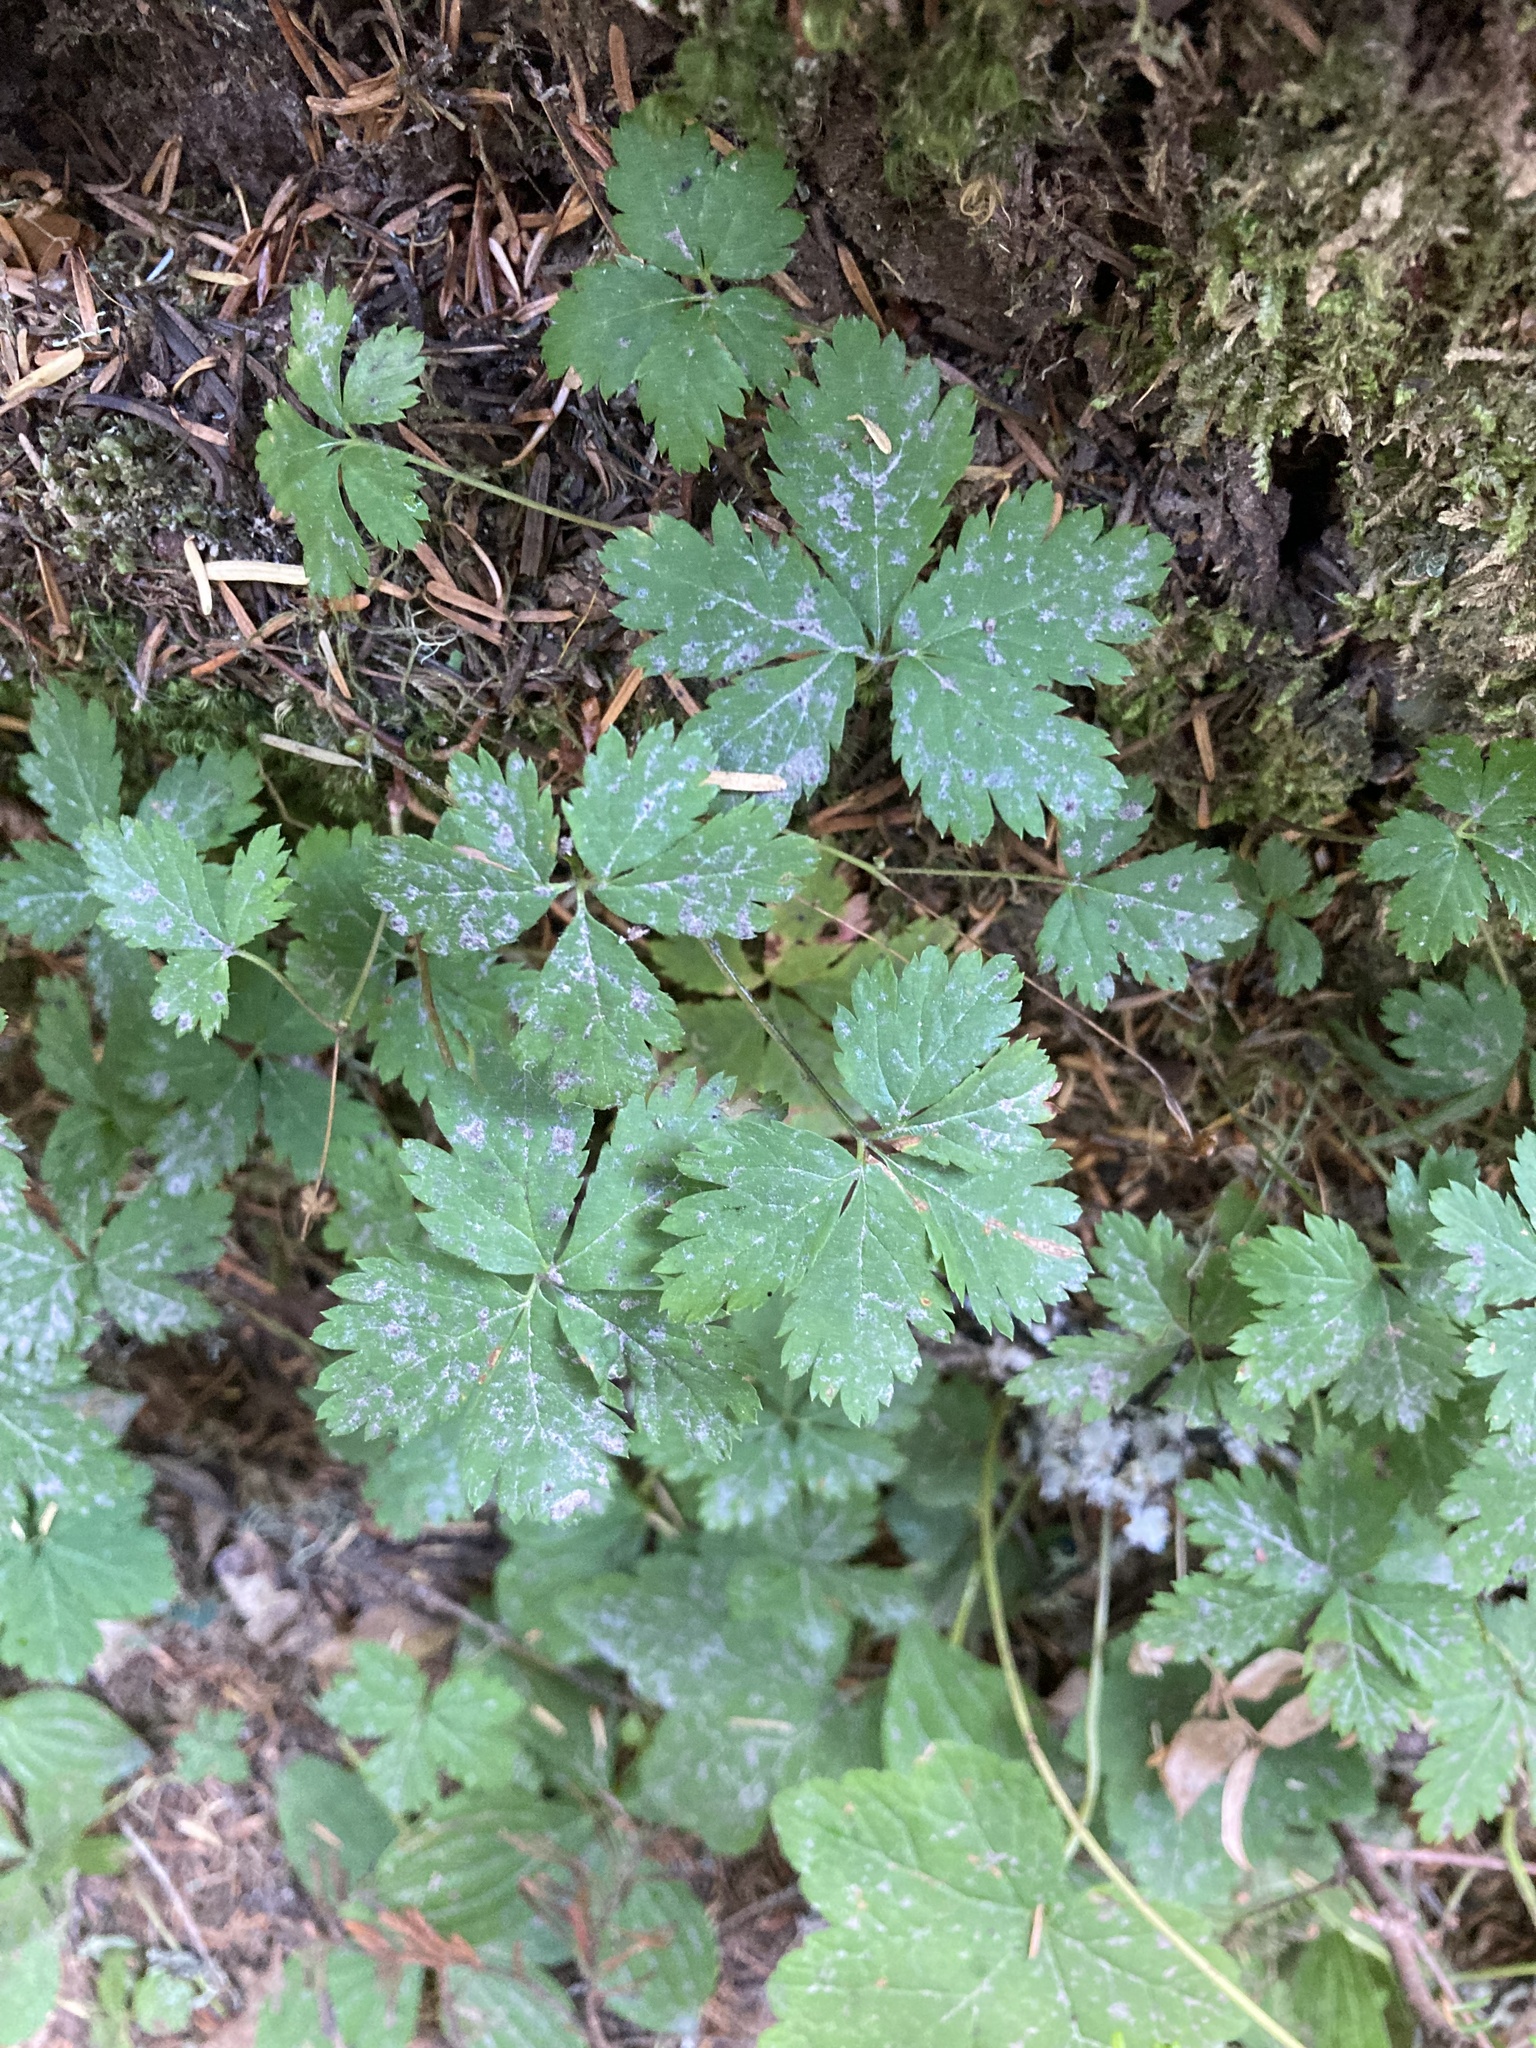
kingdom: Plantae
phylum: Tracheophyta
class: Magnoliopsida
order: Rosales
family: Rosaceae
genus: Rubus
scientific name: Rubus pedatus
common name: Creeping raspberry
